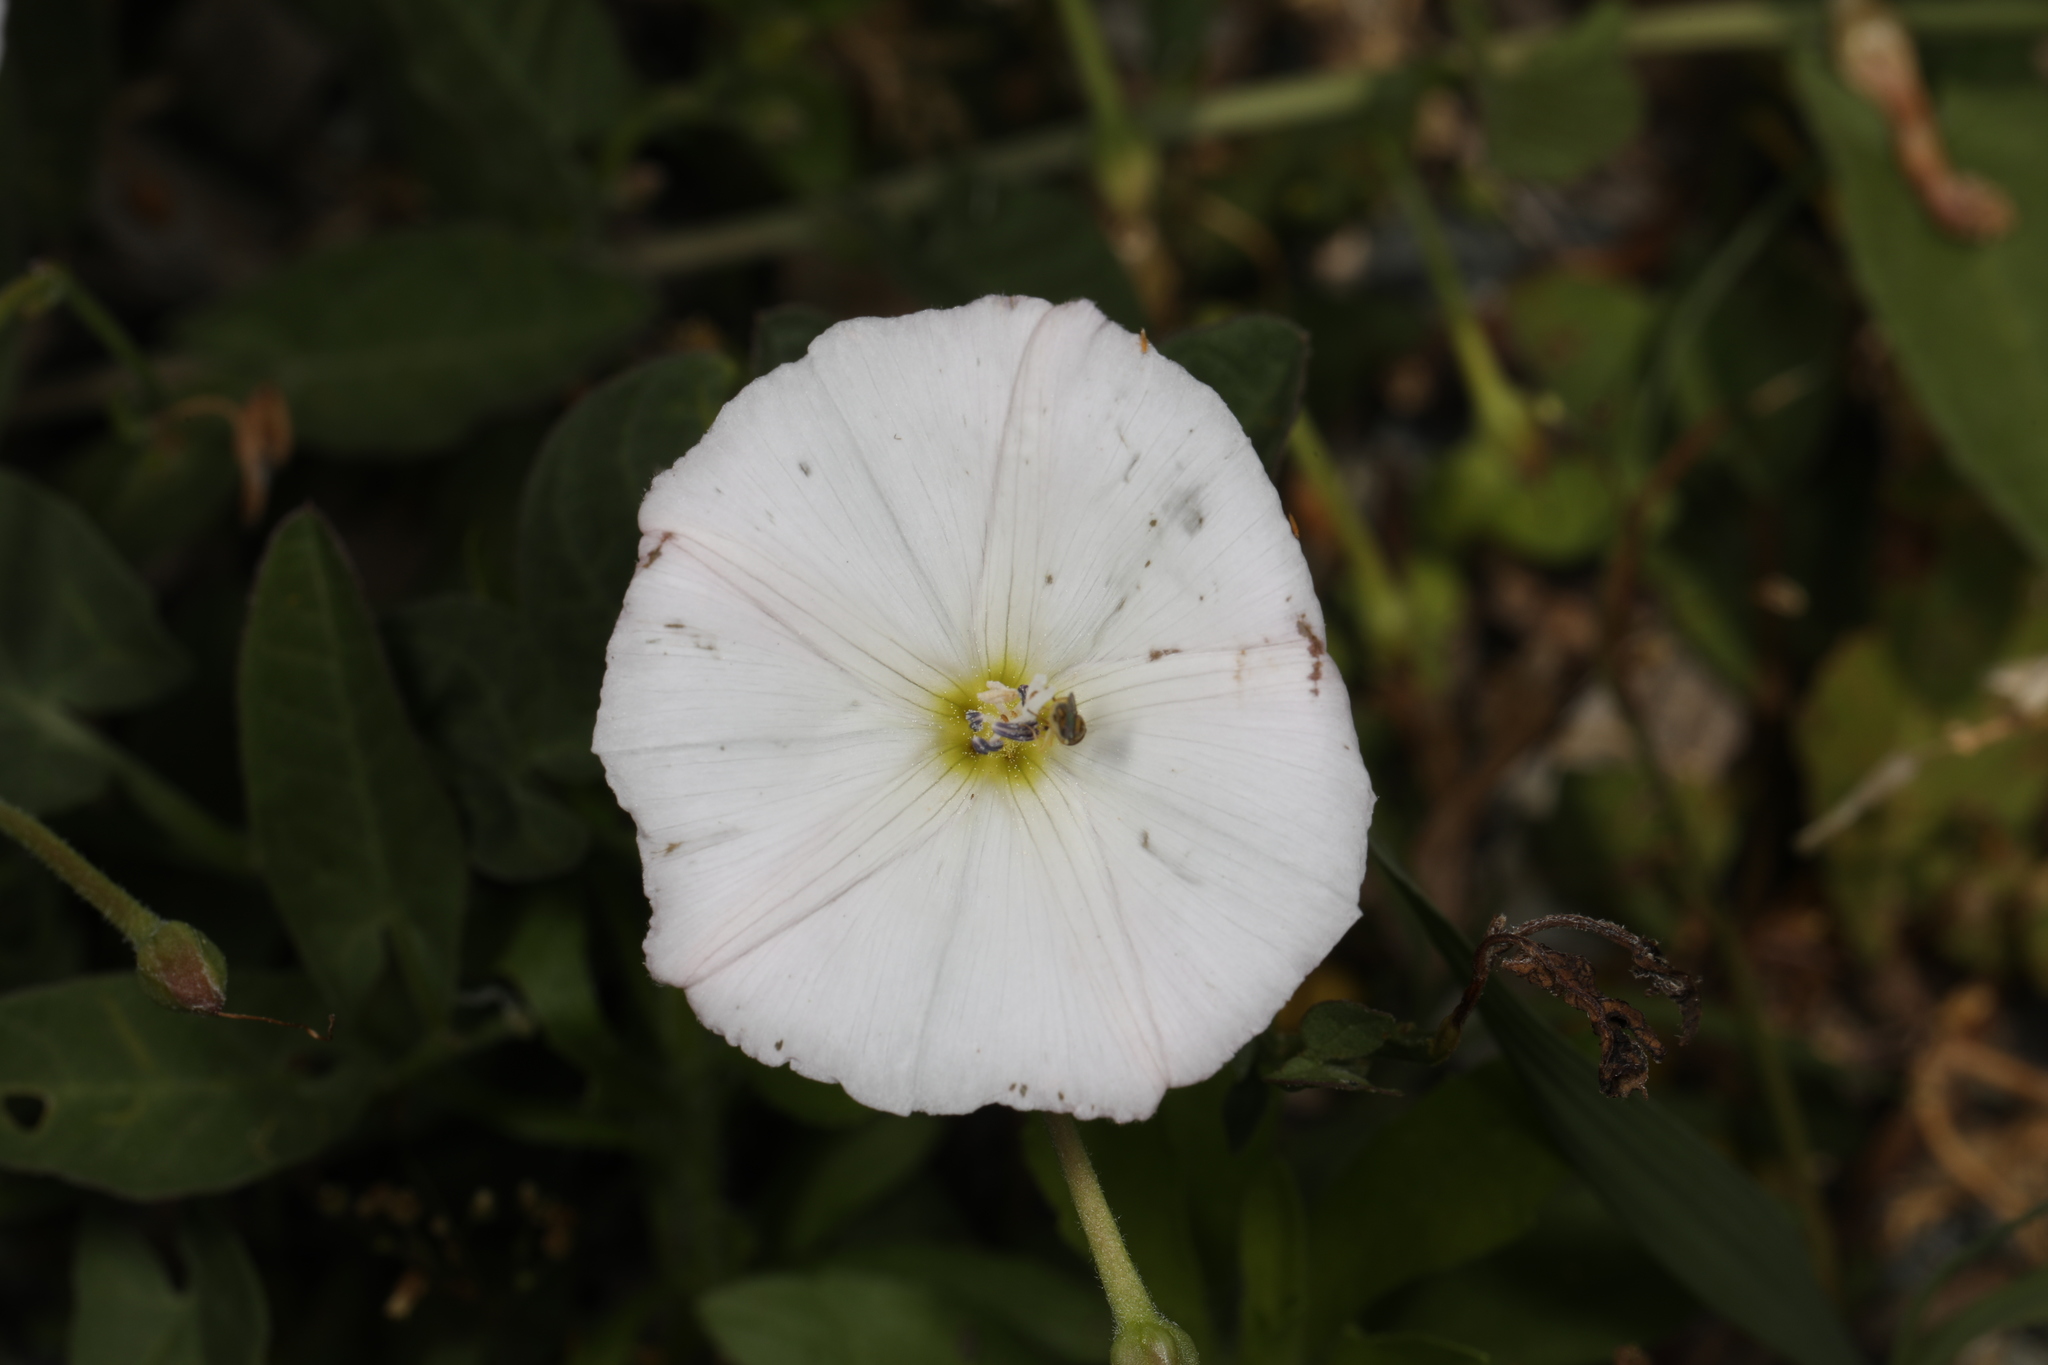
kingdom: Plantae
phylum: Tracheophyta
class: Magnoliopsida
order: Solanales
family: Convolvulaceae
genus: Convolvulus
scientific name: Convolvulus arvensis
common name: Field bindweed
